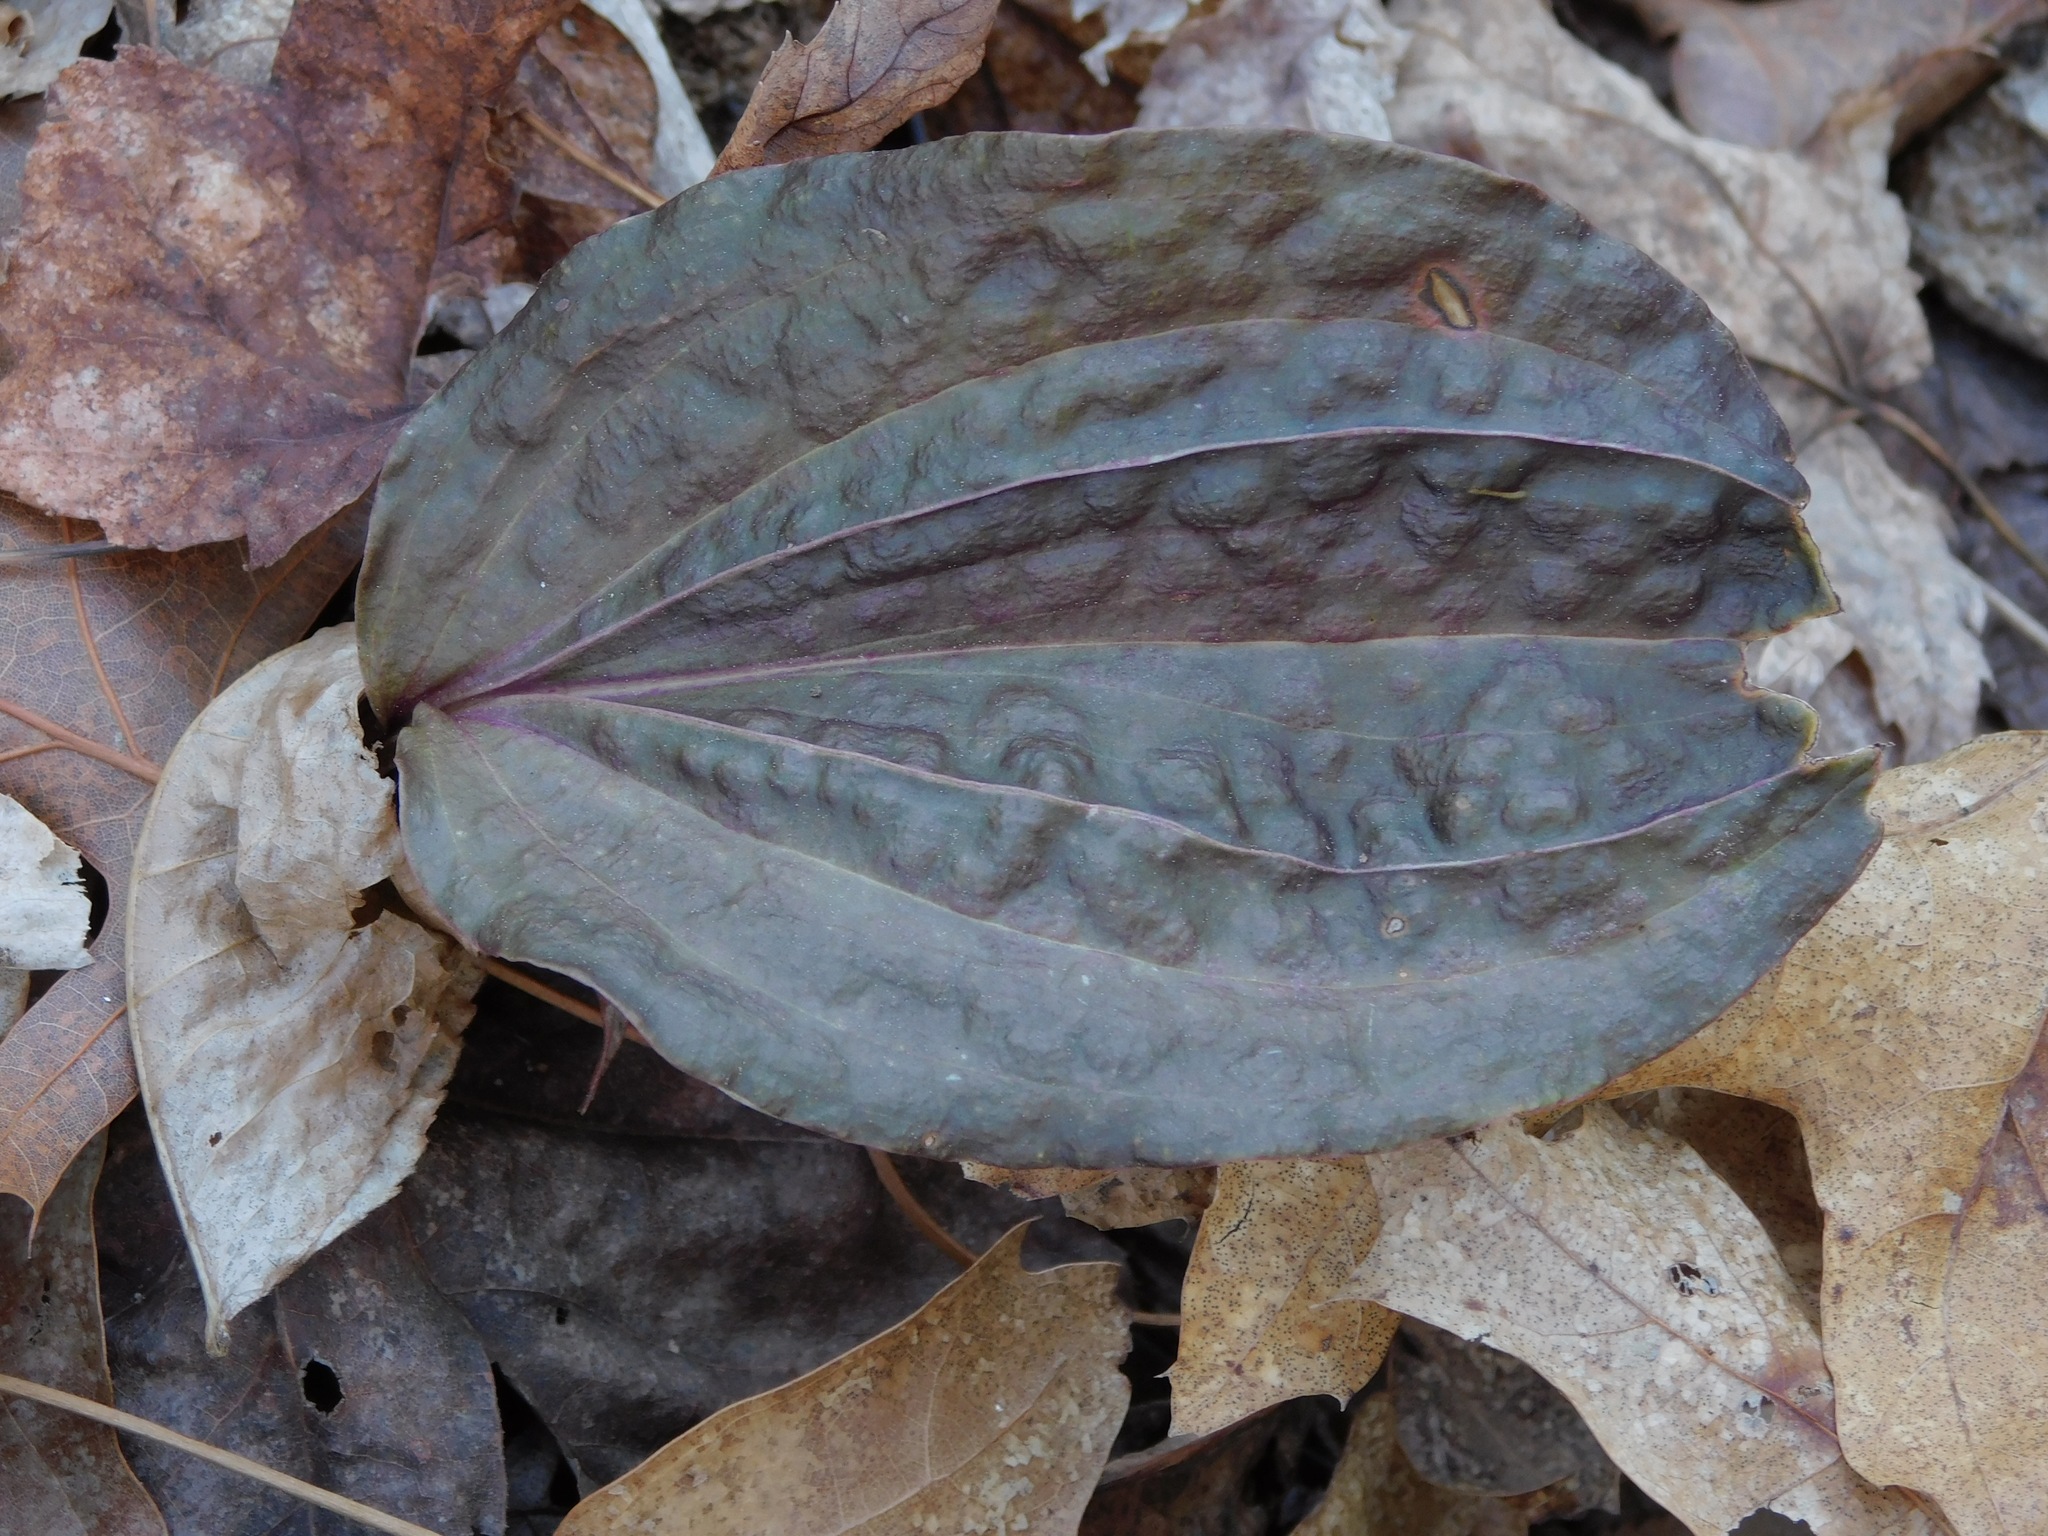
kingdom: Plantae
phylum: Tracheophyta
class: Liliopsida
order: Asparagales
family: Orchidaceae
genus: Tipularia
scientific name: Tipularia discolor
